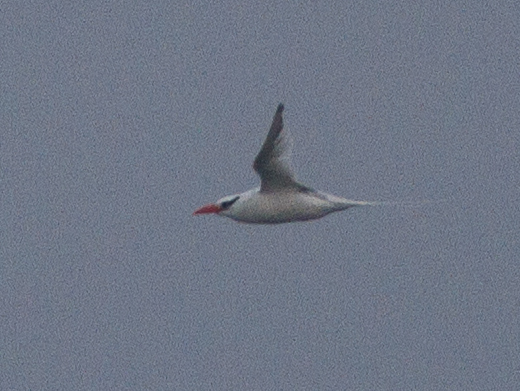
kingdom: Animalia
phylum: Chordata
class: Aves
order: Phaethontiformes
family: Phaethontidae
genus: Phaethon
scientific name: Phaethon aethereus
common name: Red-billed tropicbird
